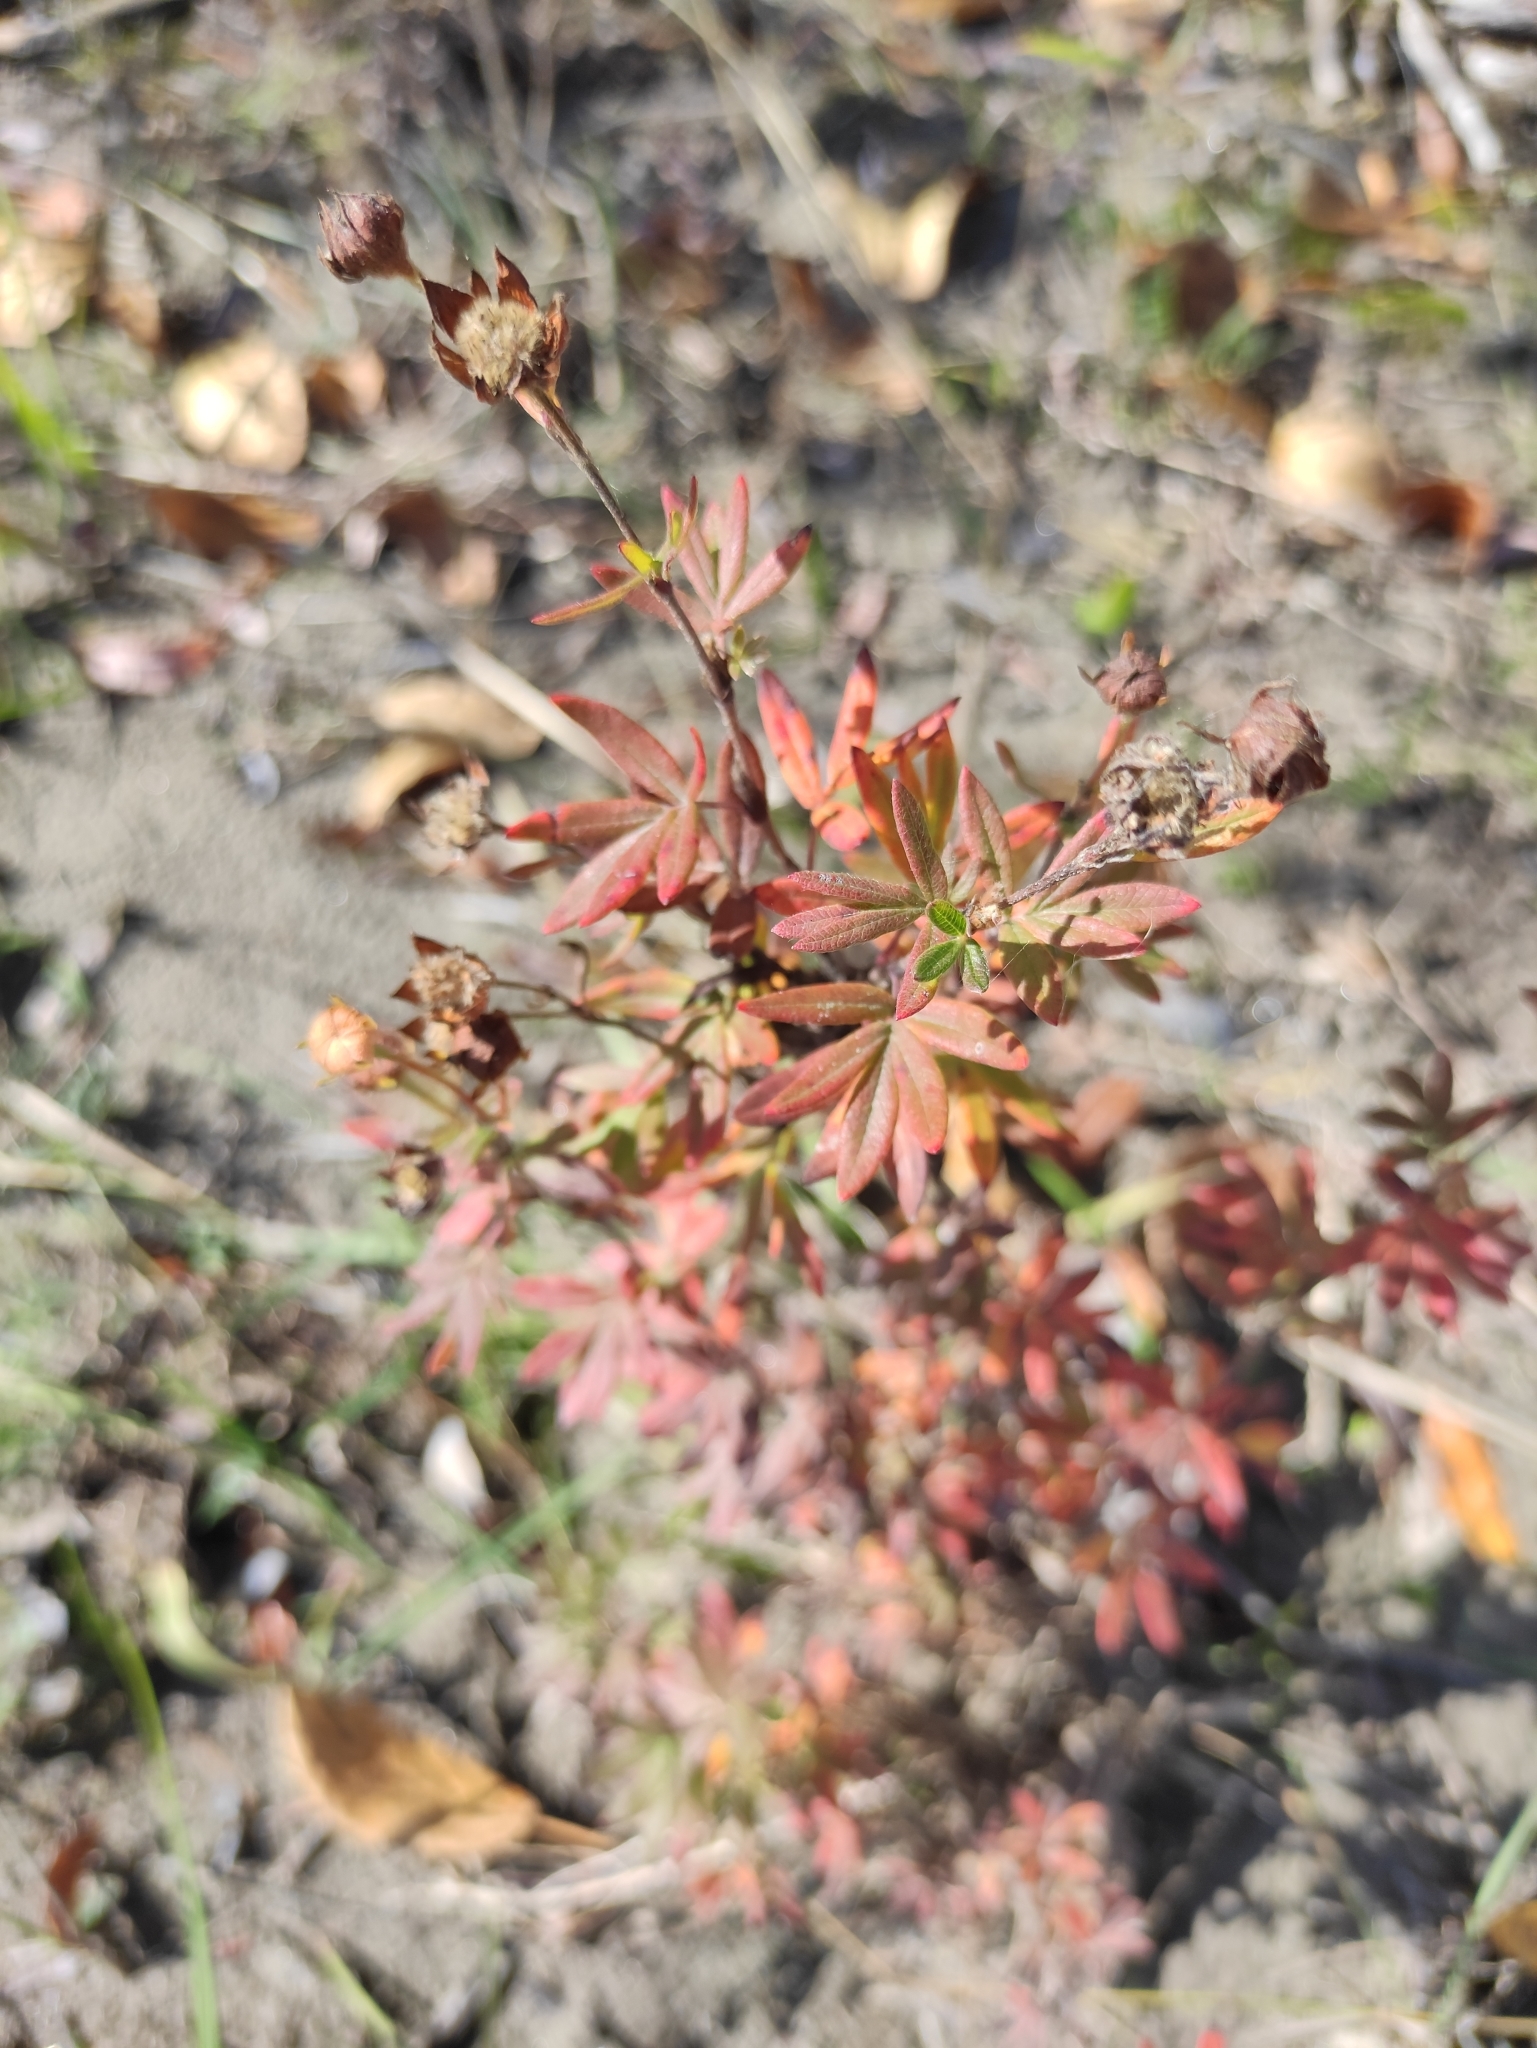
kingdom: Plantae
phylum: Tracheophyta
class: Magnoliopsida
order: Rosales
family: Rosaceae
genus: Dasiphora
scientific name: Dasiphora fruticosa
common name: Shrubby cinquefoil
